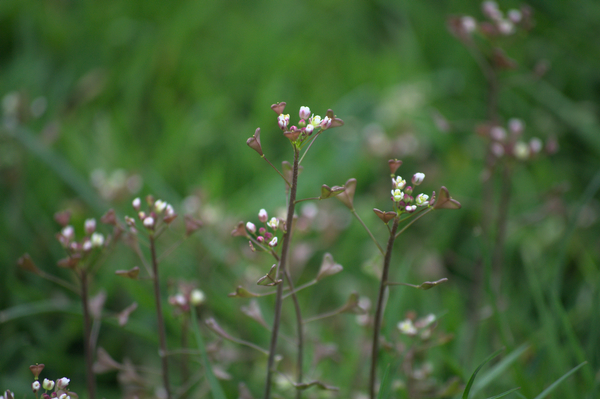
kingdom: Plantae
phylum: Tracheophyta
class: Magnoliopsida
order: Brassicales
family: Brassicaceae
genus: Capsella
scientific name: Capsella bursa-pastoris
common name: Shepherd's purse
